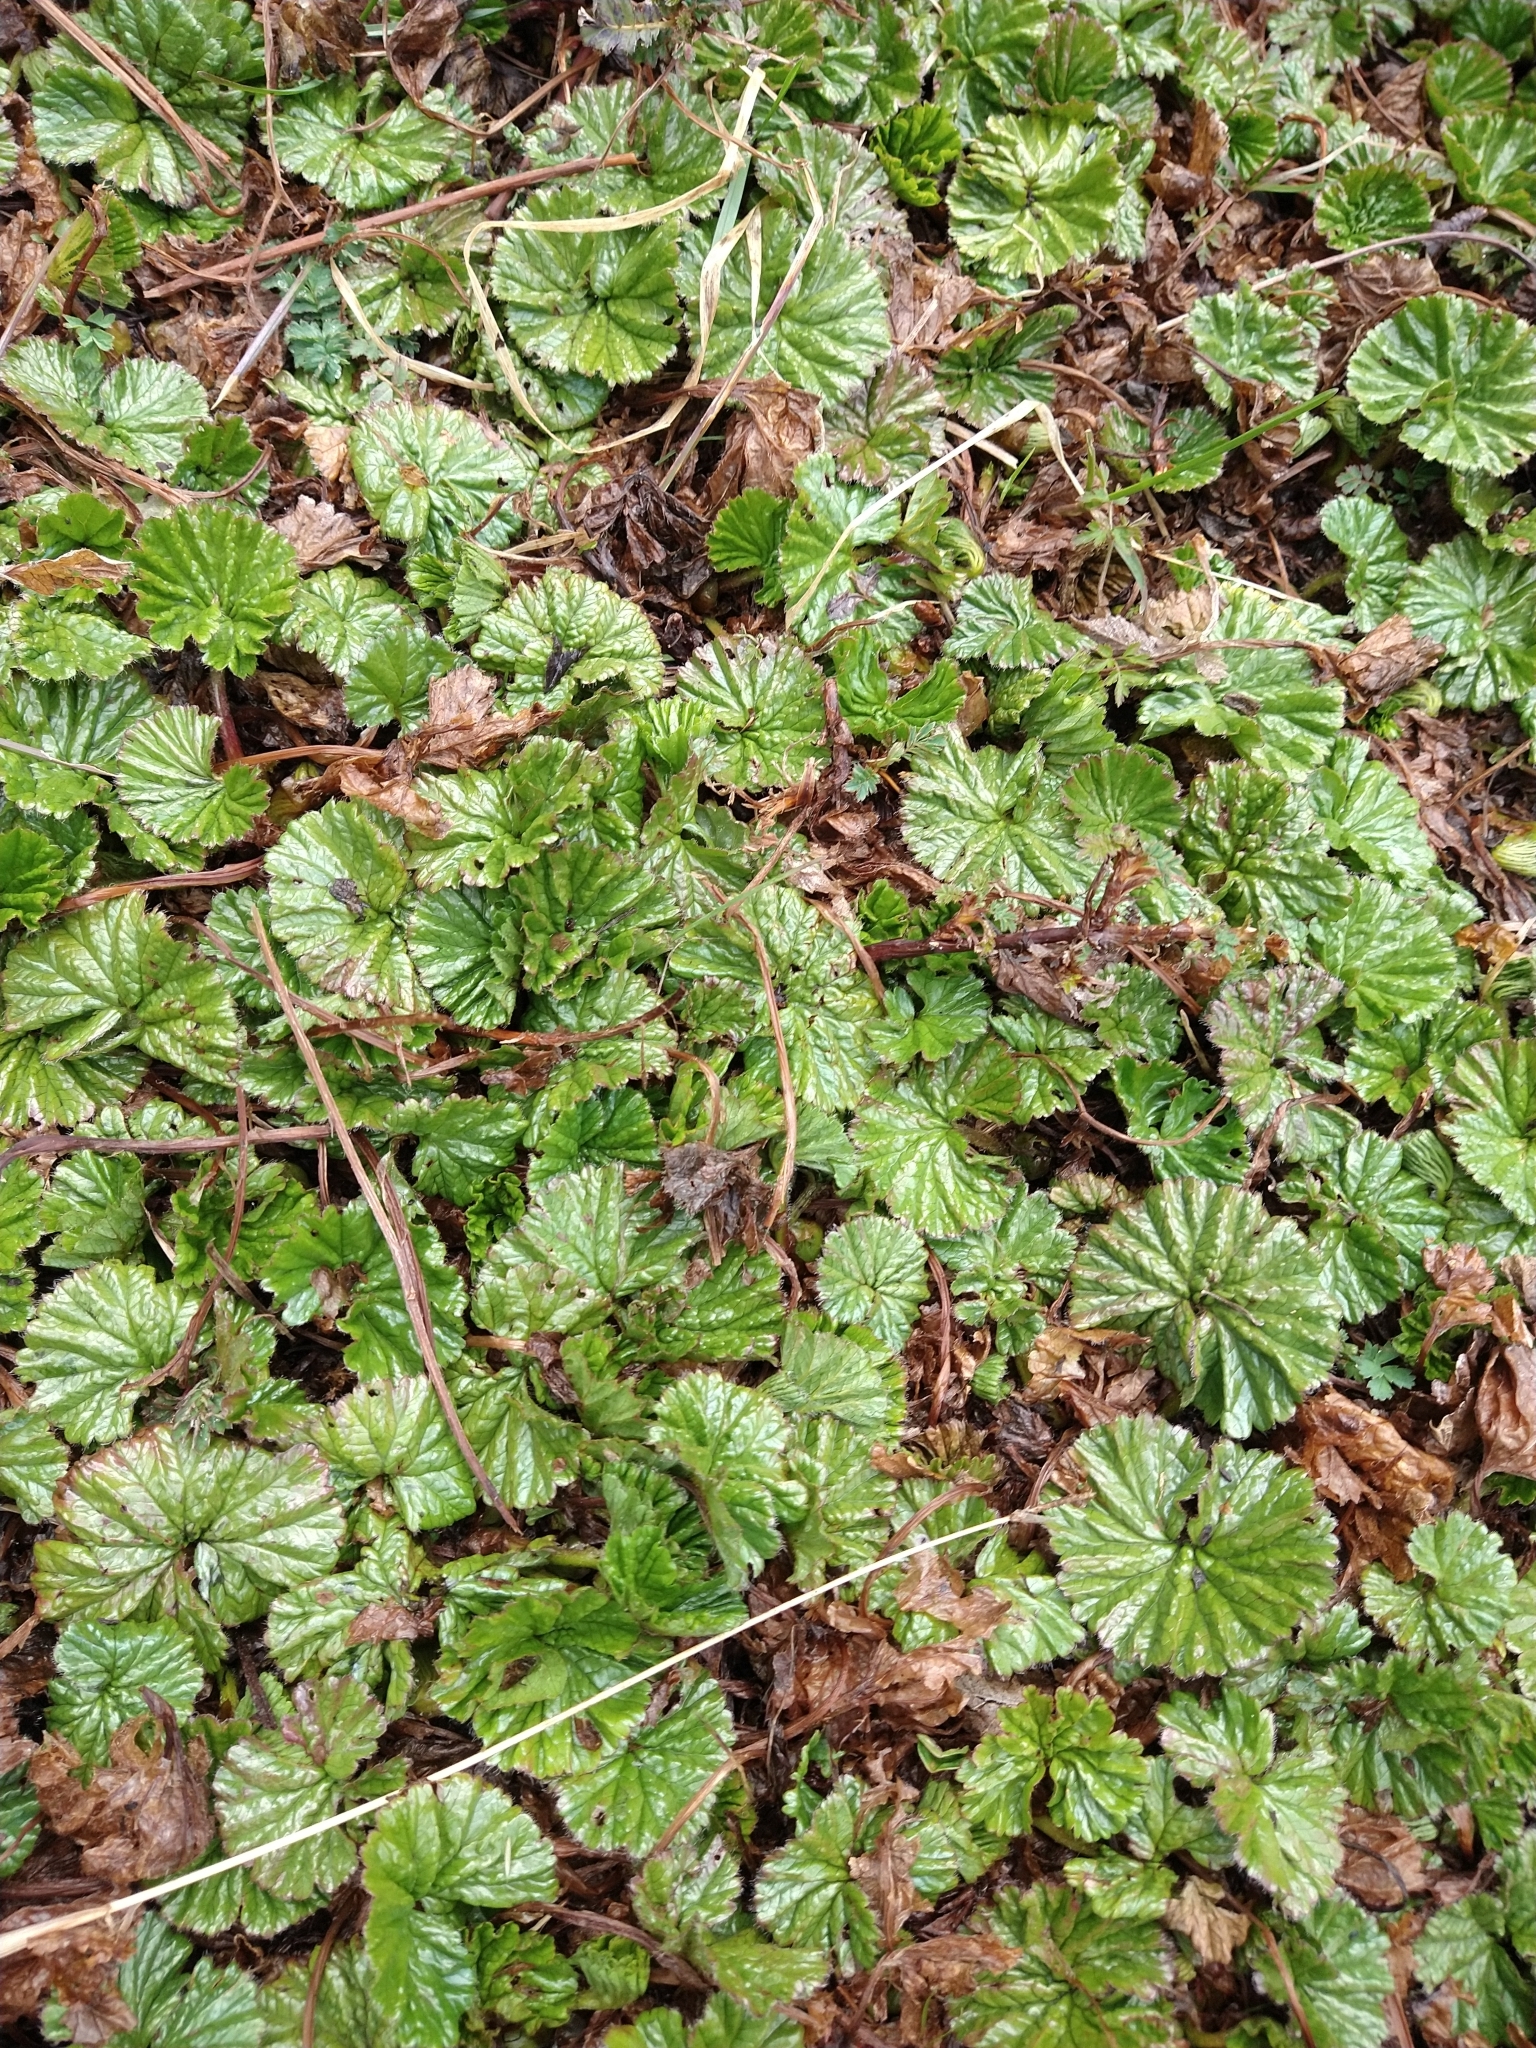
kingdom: Plantae
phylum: Tracheophyta
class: Magnoliopsida
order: Gunnerales
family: Gunneraceae
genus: Gunnera
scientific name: Gunnera magellanica
